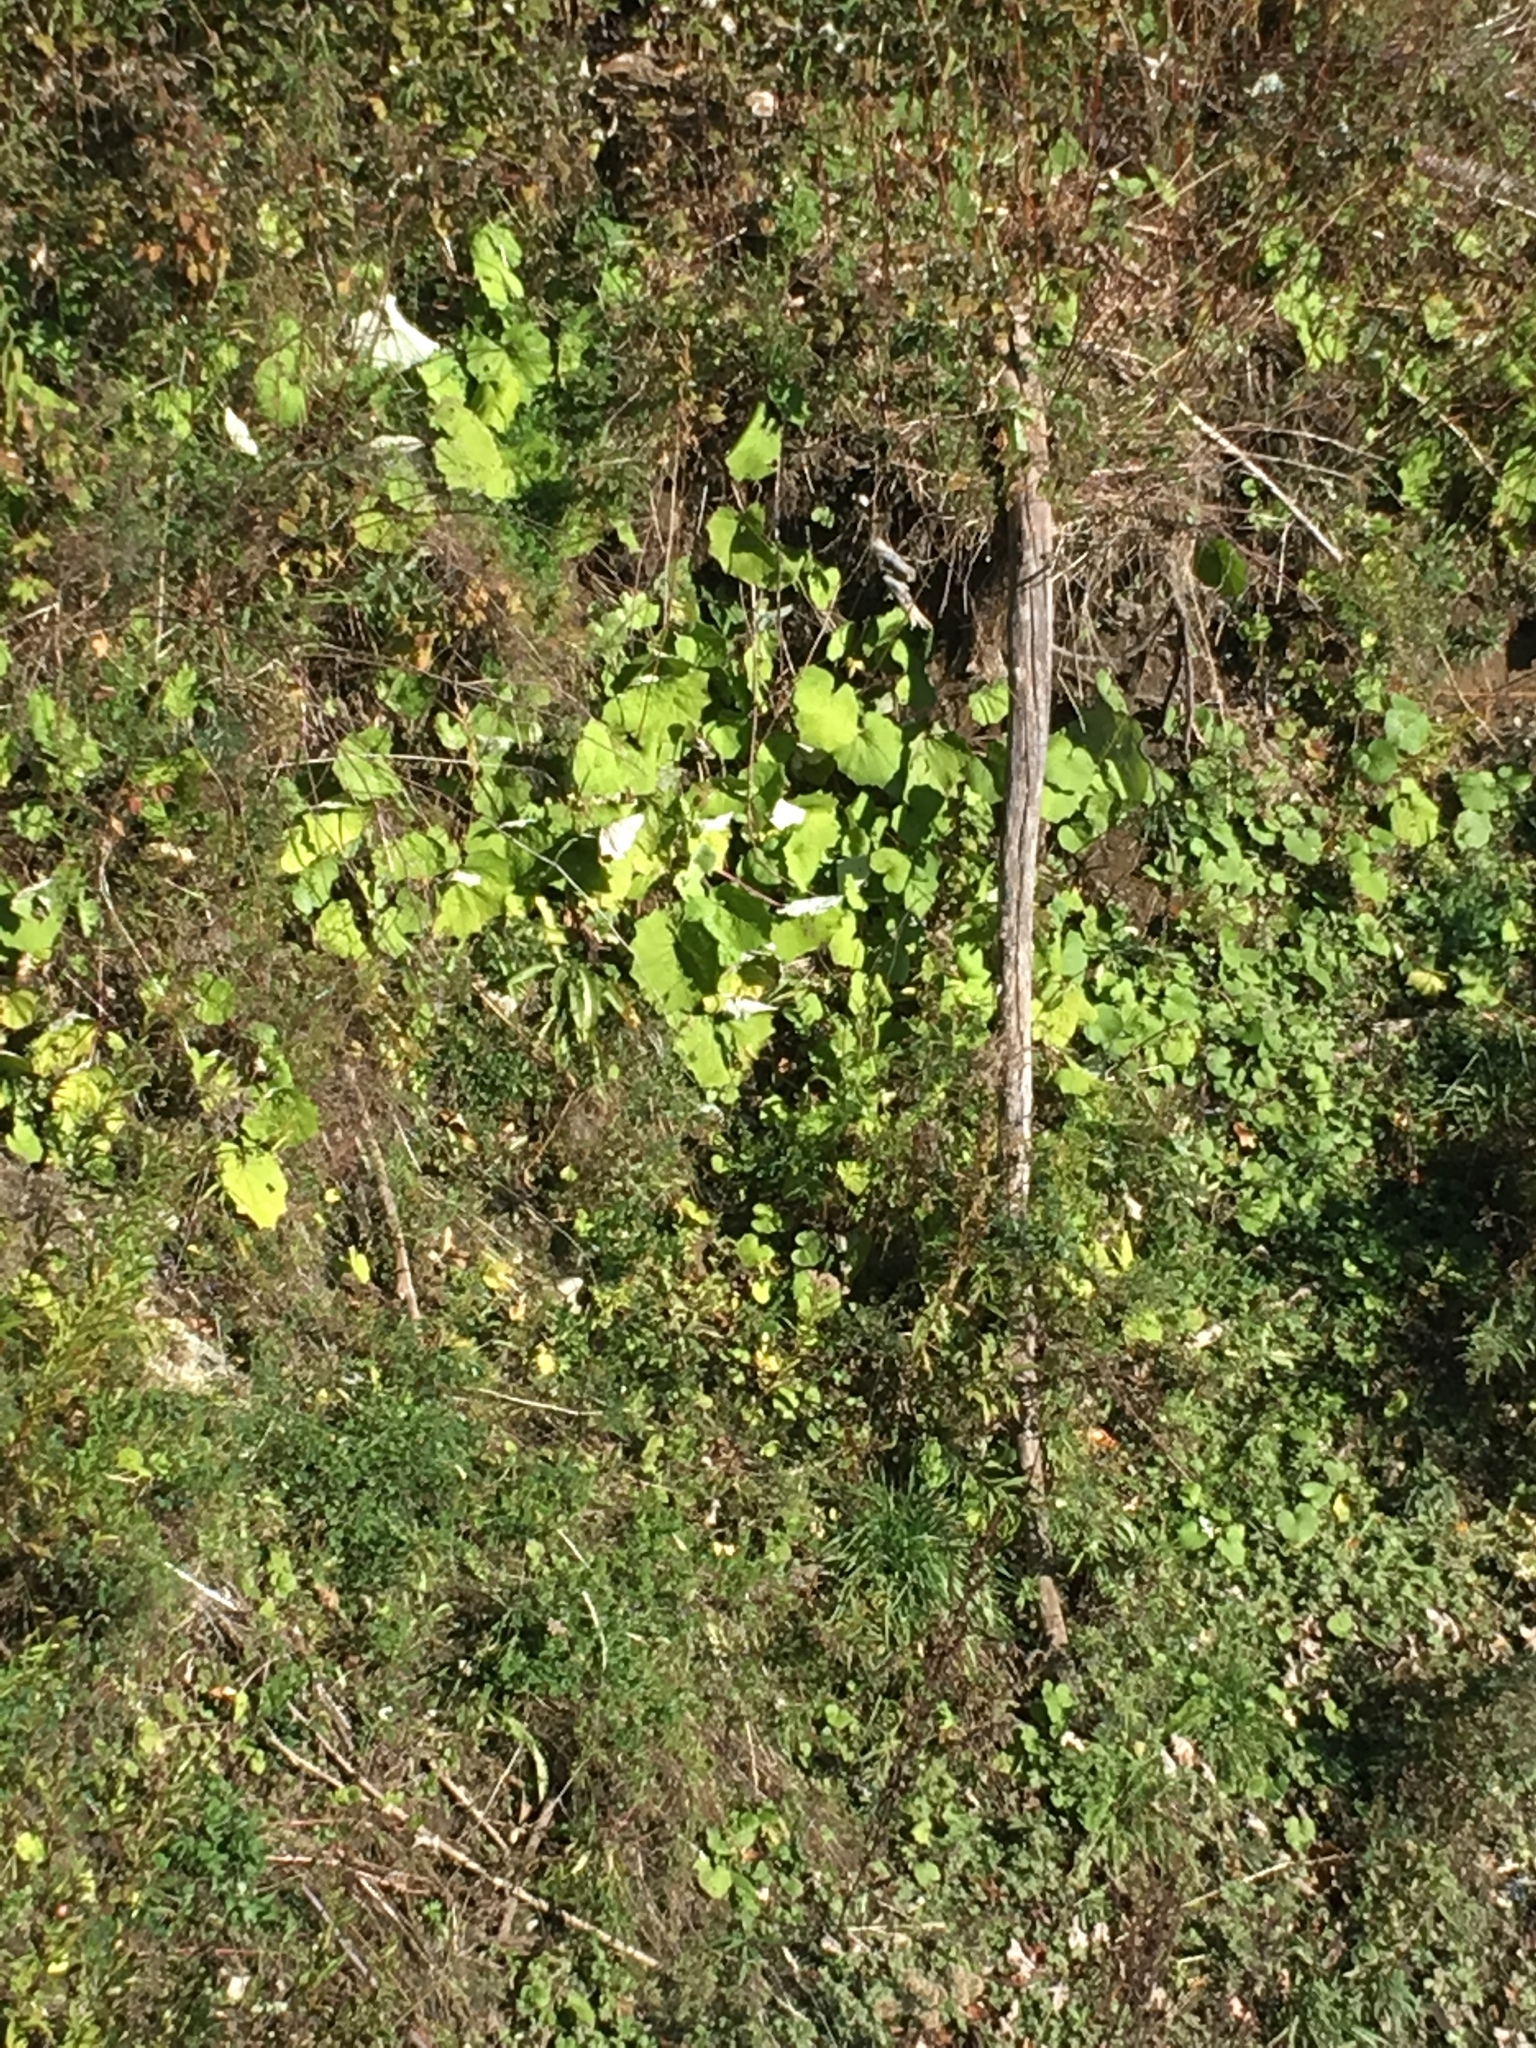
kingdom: Plantae
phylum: Tracheophyta
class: Magnoliopsida
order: Asterales
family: Asteraceae
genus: Tussilago
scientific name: Tussilago farfara
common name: Coltsfoot
